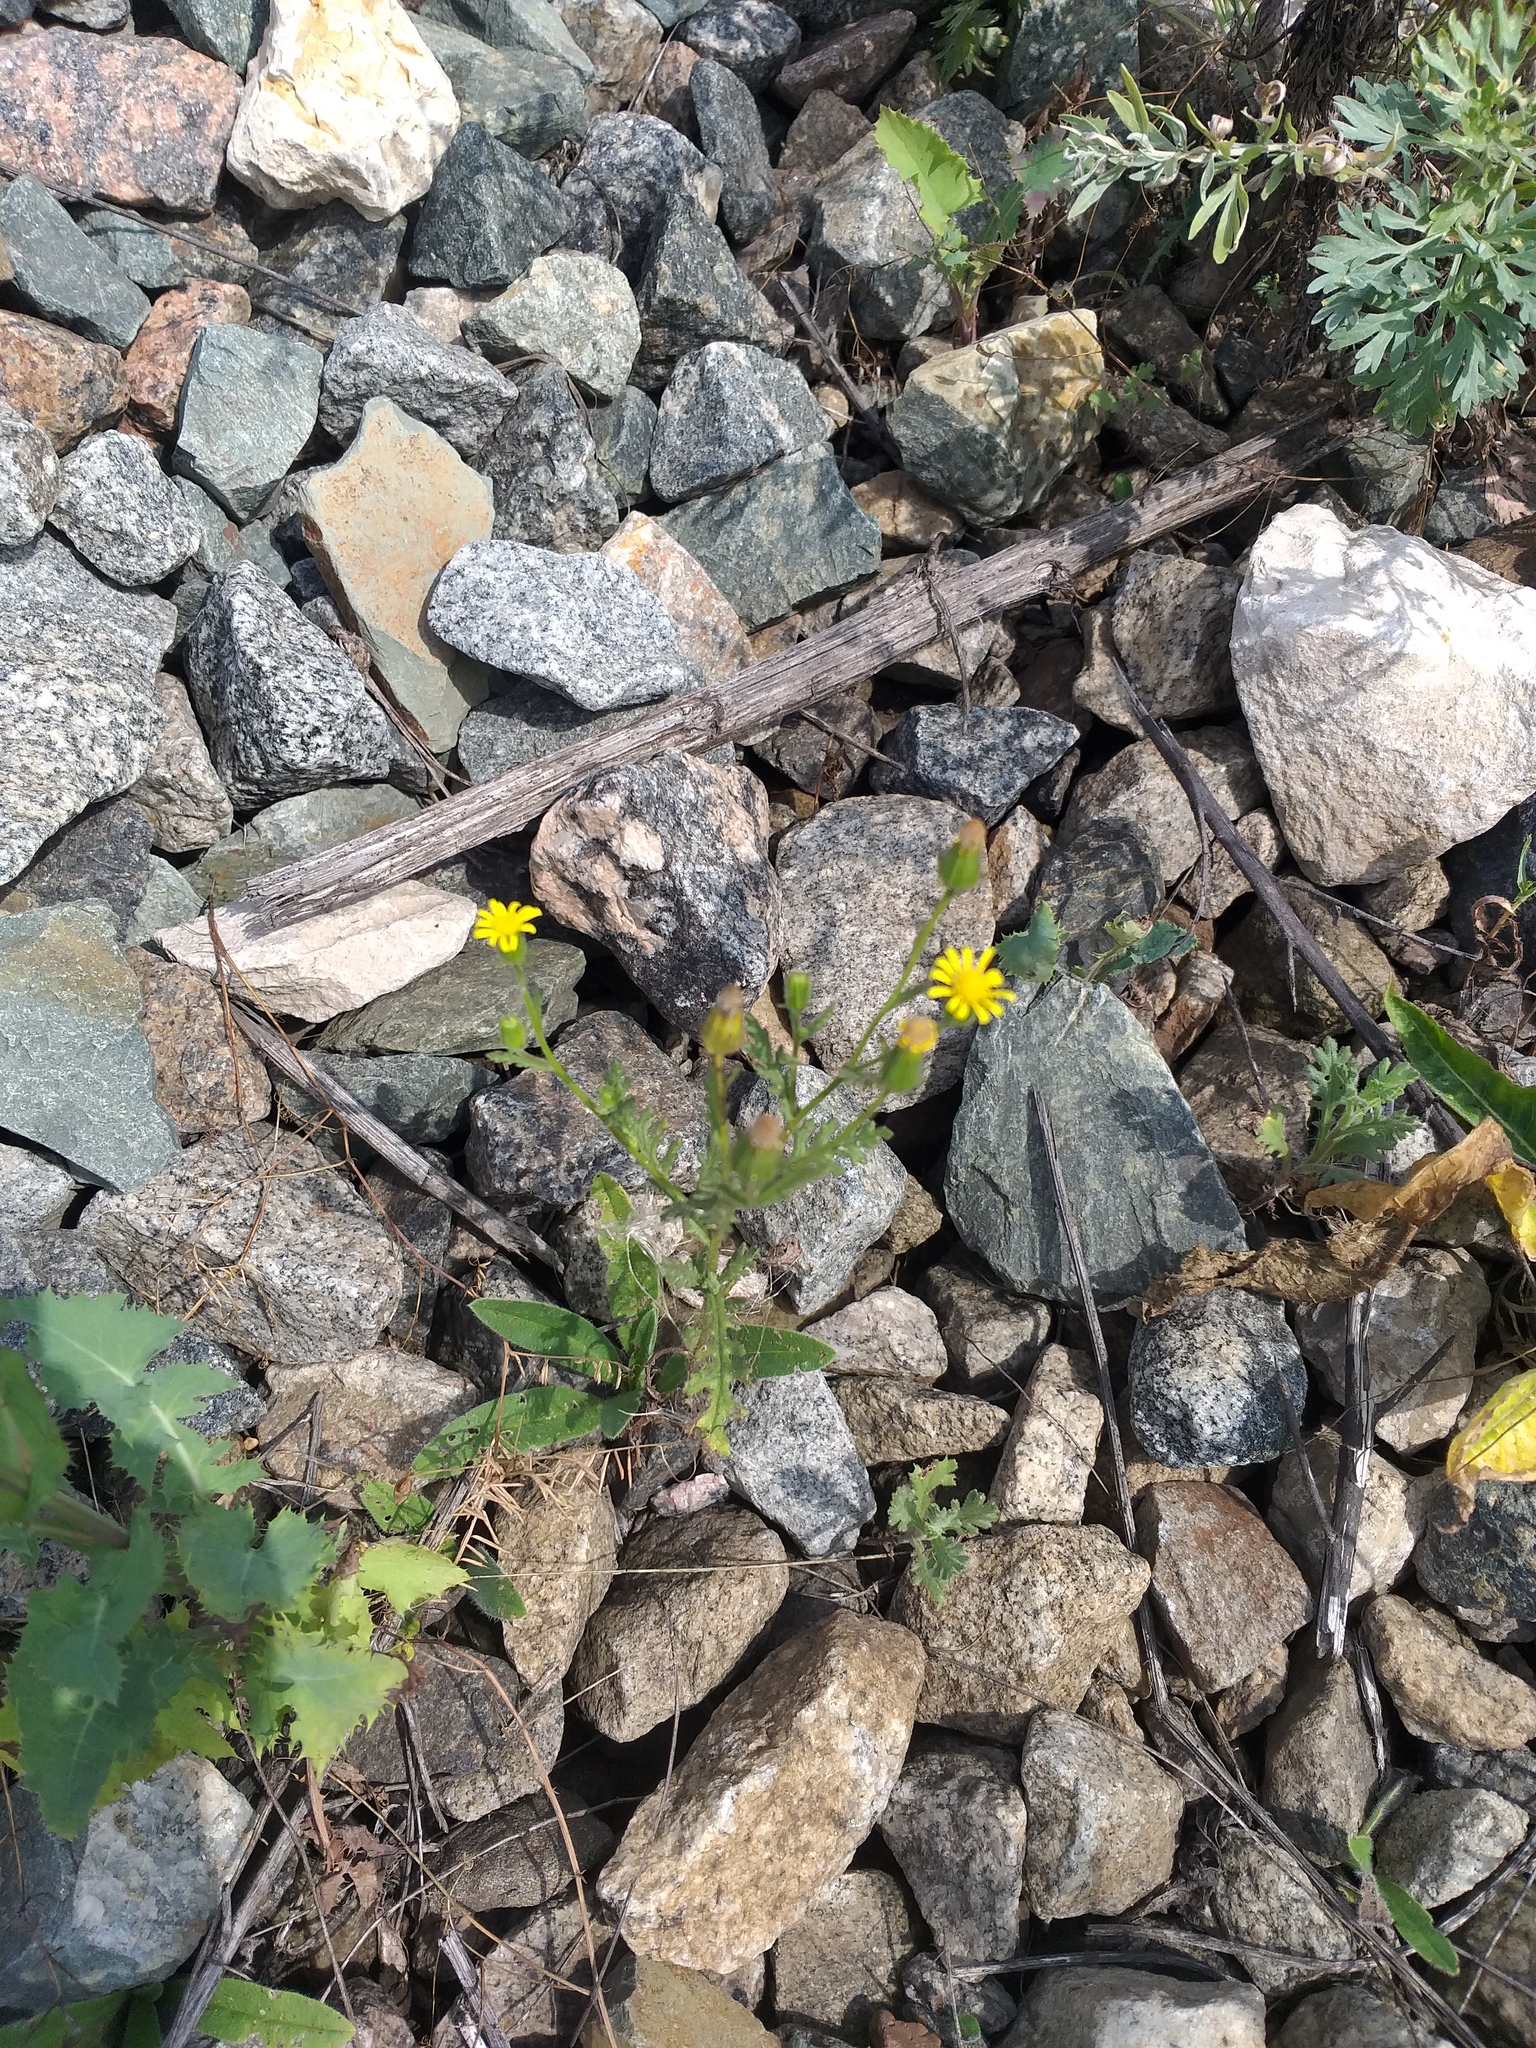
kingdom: Plantae
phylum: Tracheophyta
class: Magnoliopsida
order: Asterales
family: Asteraceae
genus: Senecio
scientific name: Senecio viscosus
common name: Sticky groundsel
